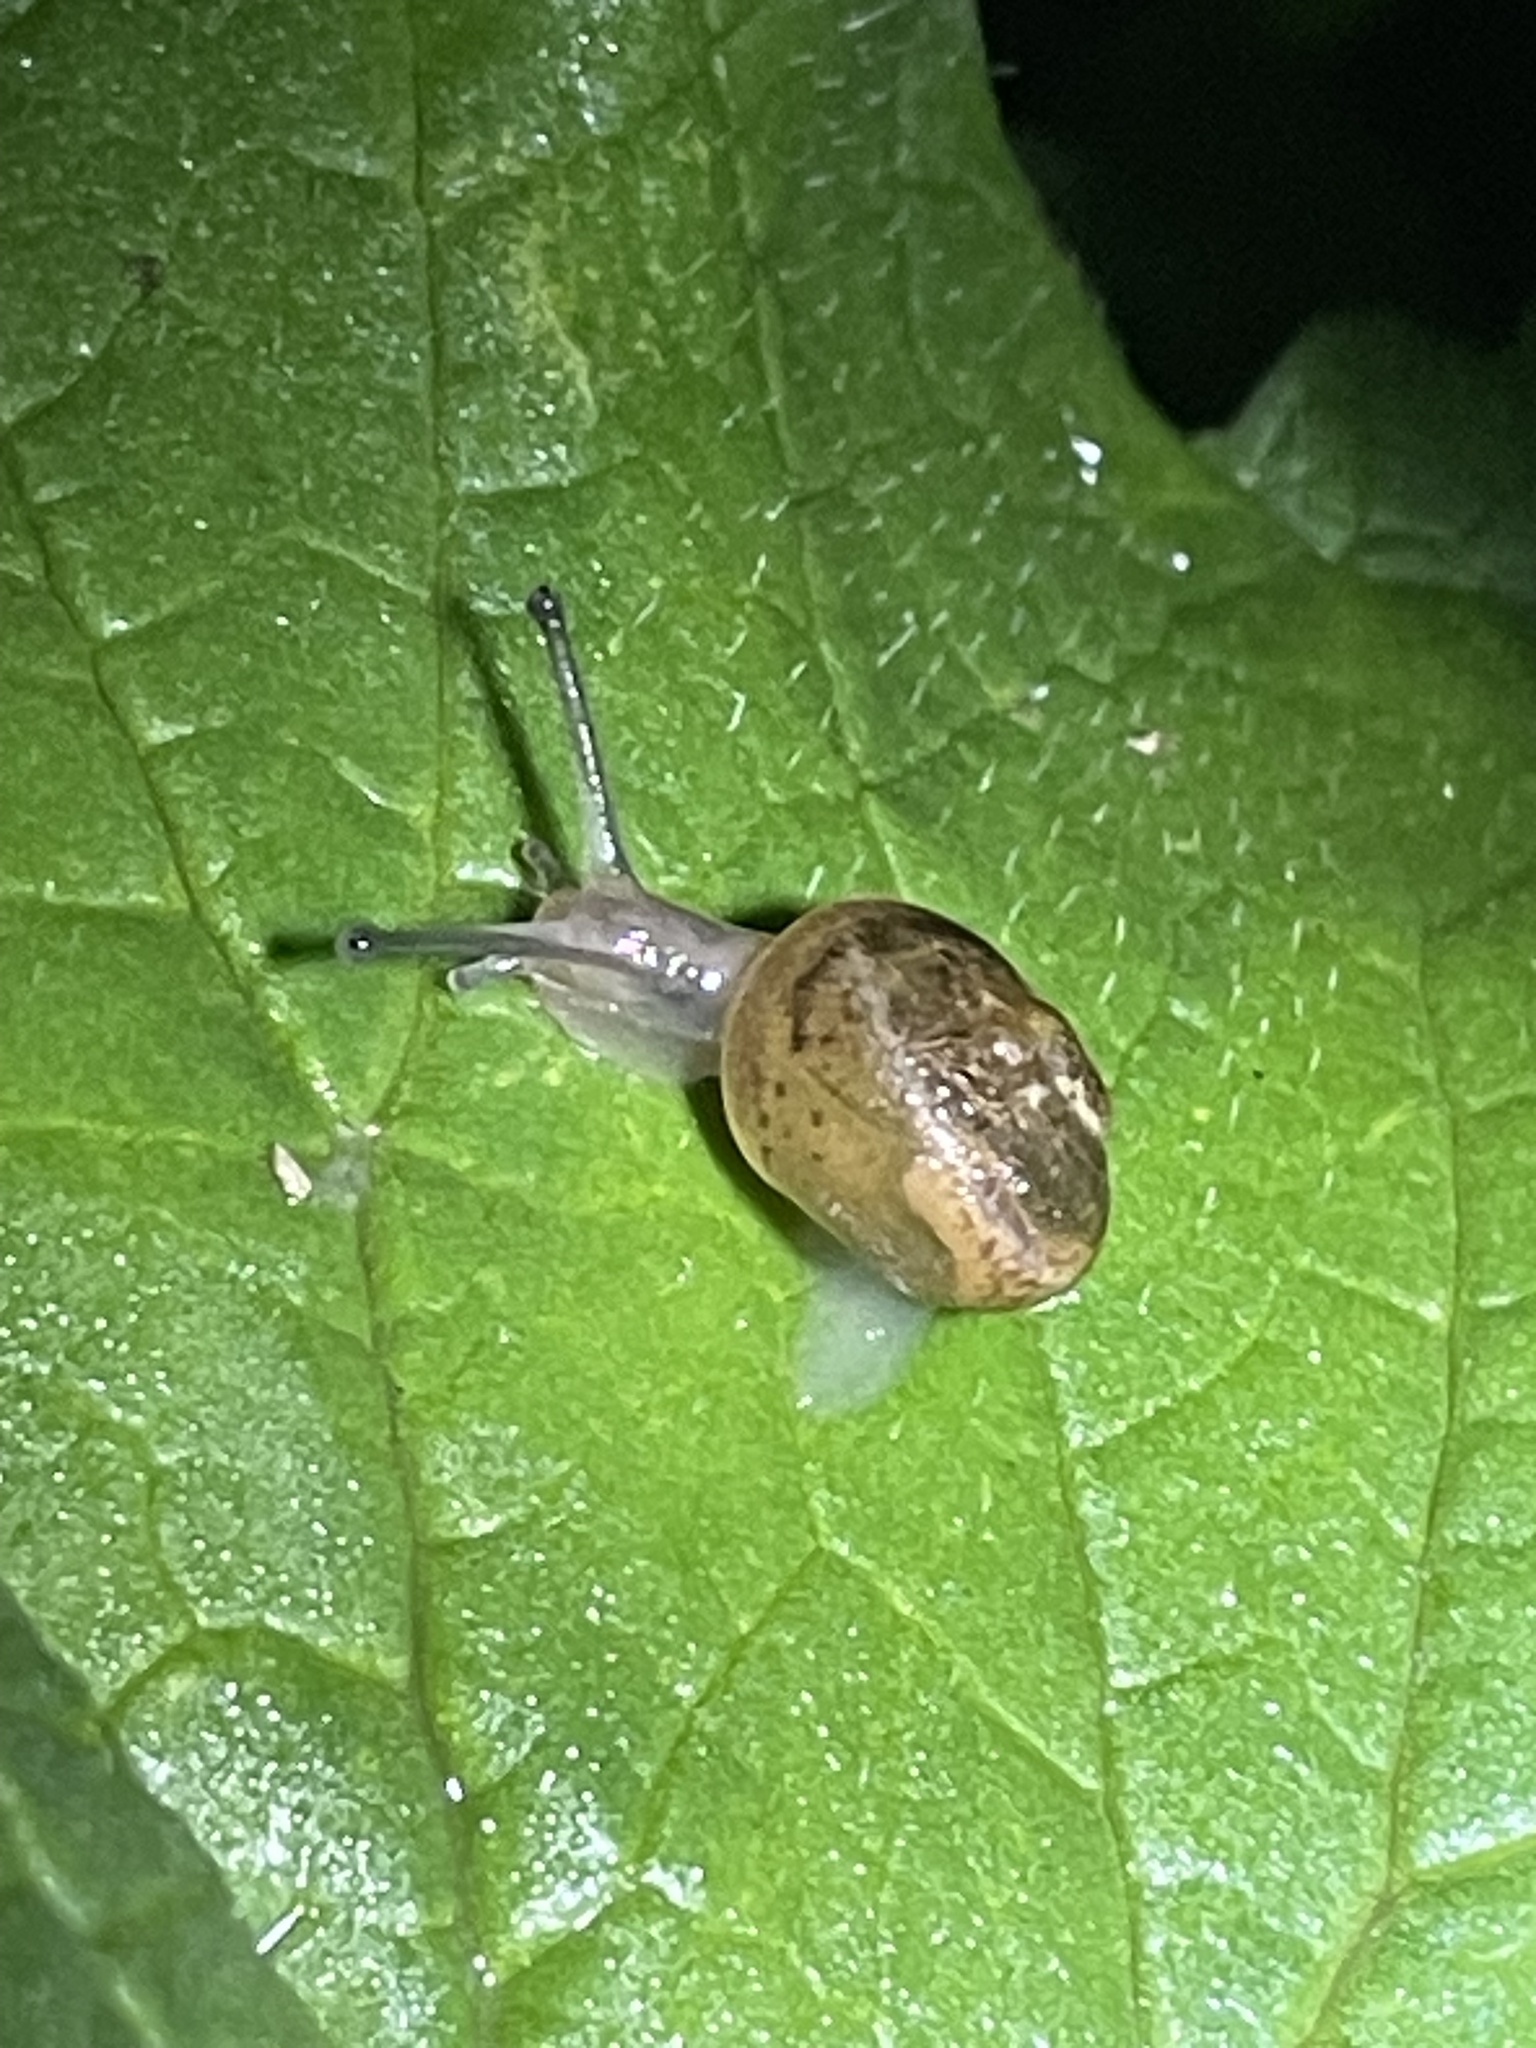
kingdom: Animalia
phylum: Mollusca
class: Gastropoda
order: Stylommatophora
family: Helicidae
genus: Cornu
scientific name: Cornu aspersum
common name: Brown garden snail
